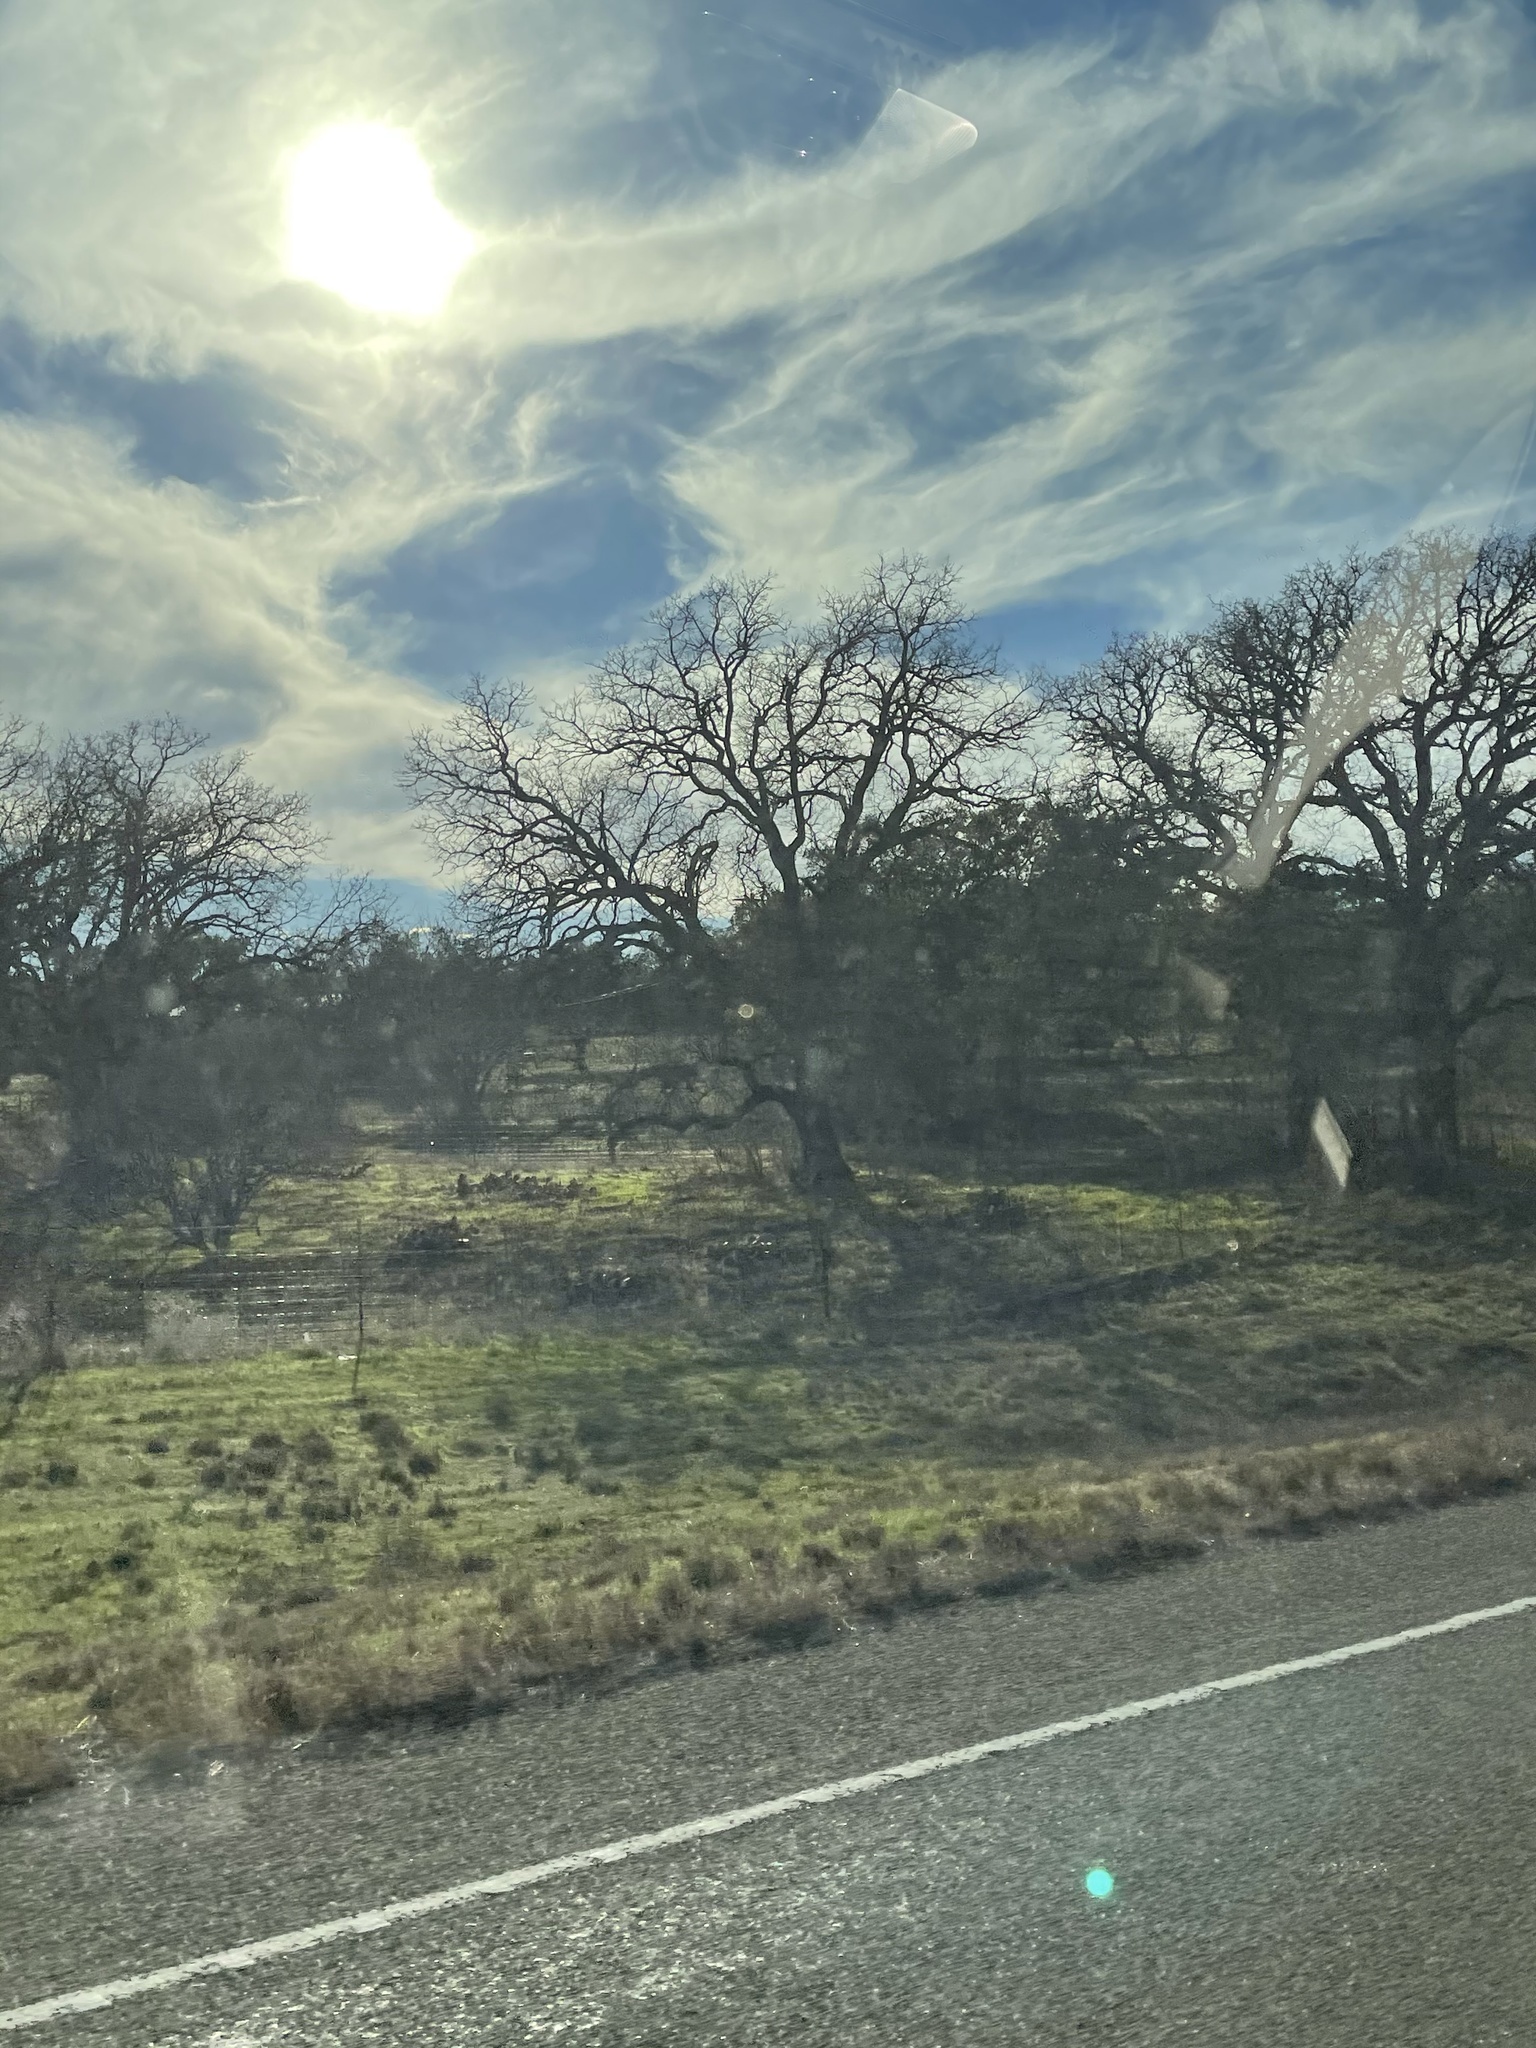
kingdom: Plantae
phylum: Tracheophyta
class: Magnoliopsida
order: Fagales
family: Fagaceae
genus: Quercus
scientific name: Quercus stellata
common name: Post oak
